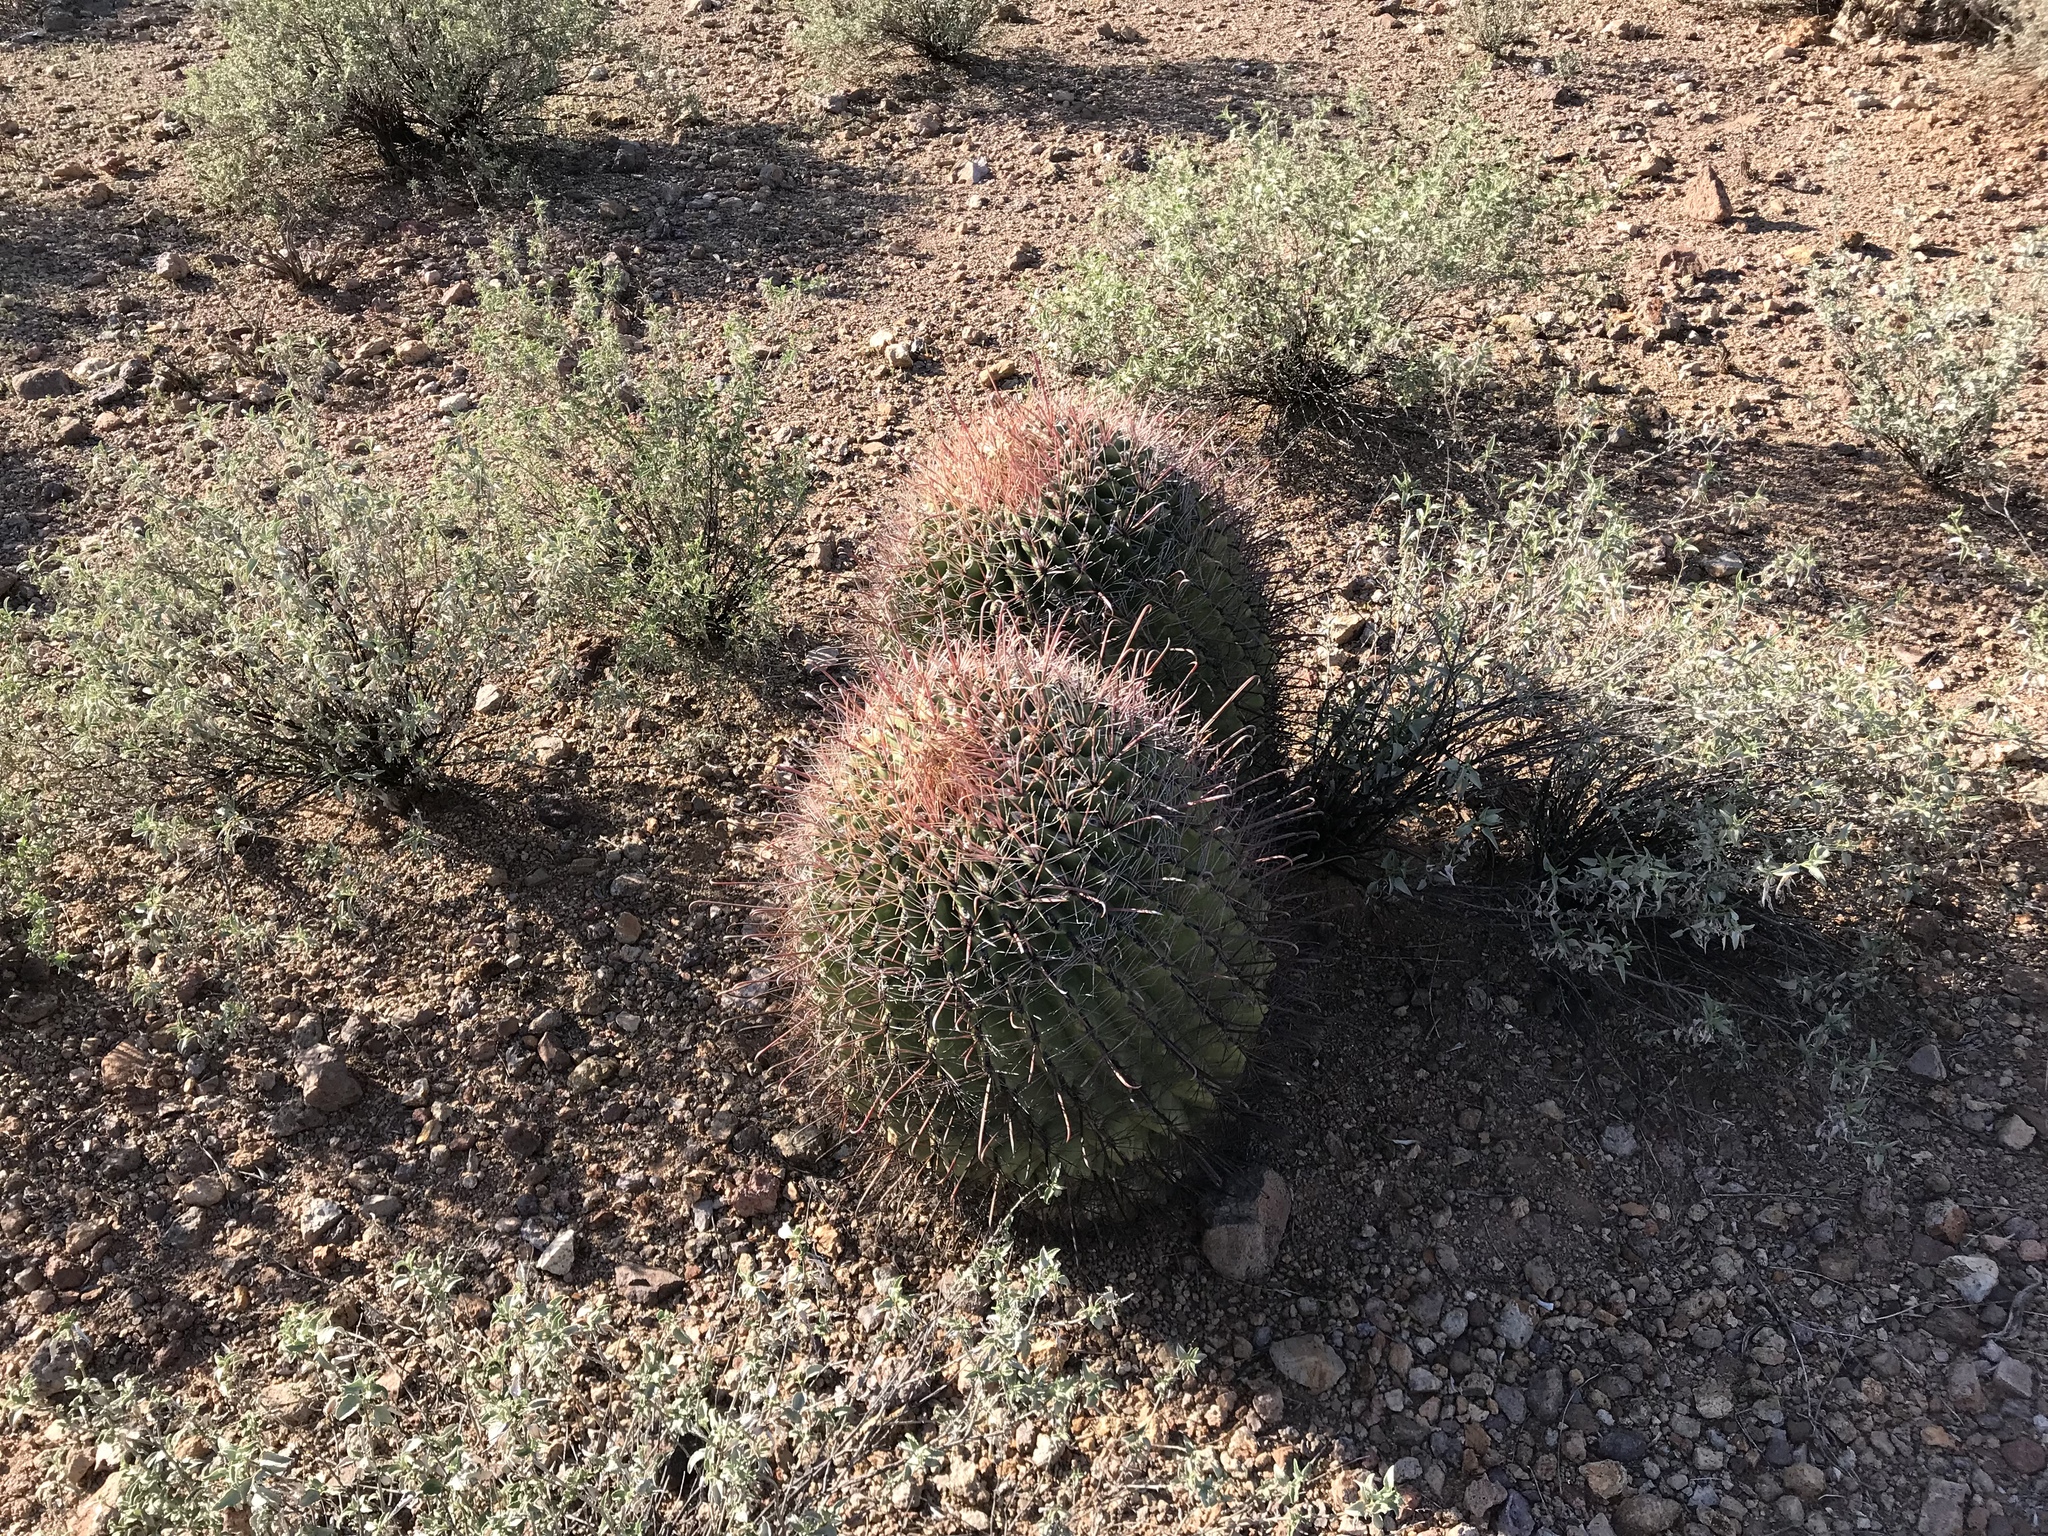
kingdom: Plantae
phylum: Tracheophyta
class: Magnoliopsida
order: Caryophyllales
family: Cactaceae
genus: Ferocactus
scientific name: Ferocactus wislizeni
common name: Candy barrel cactus
